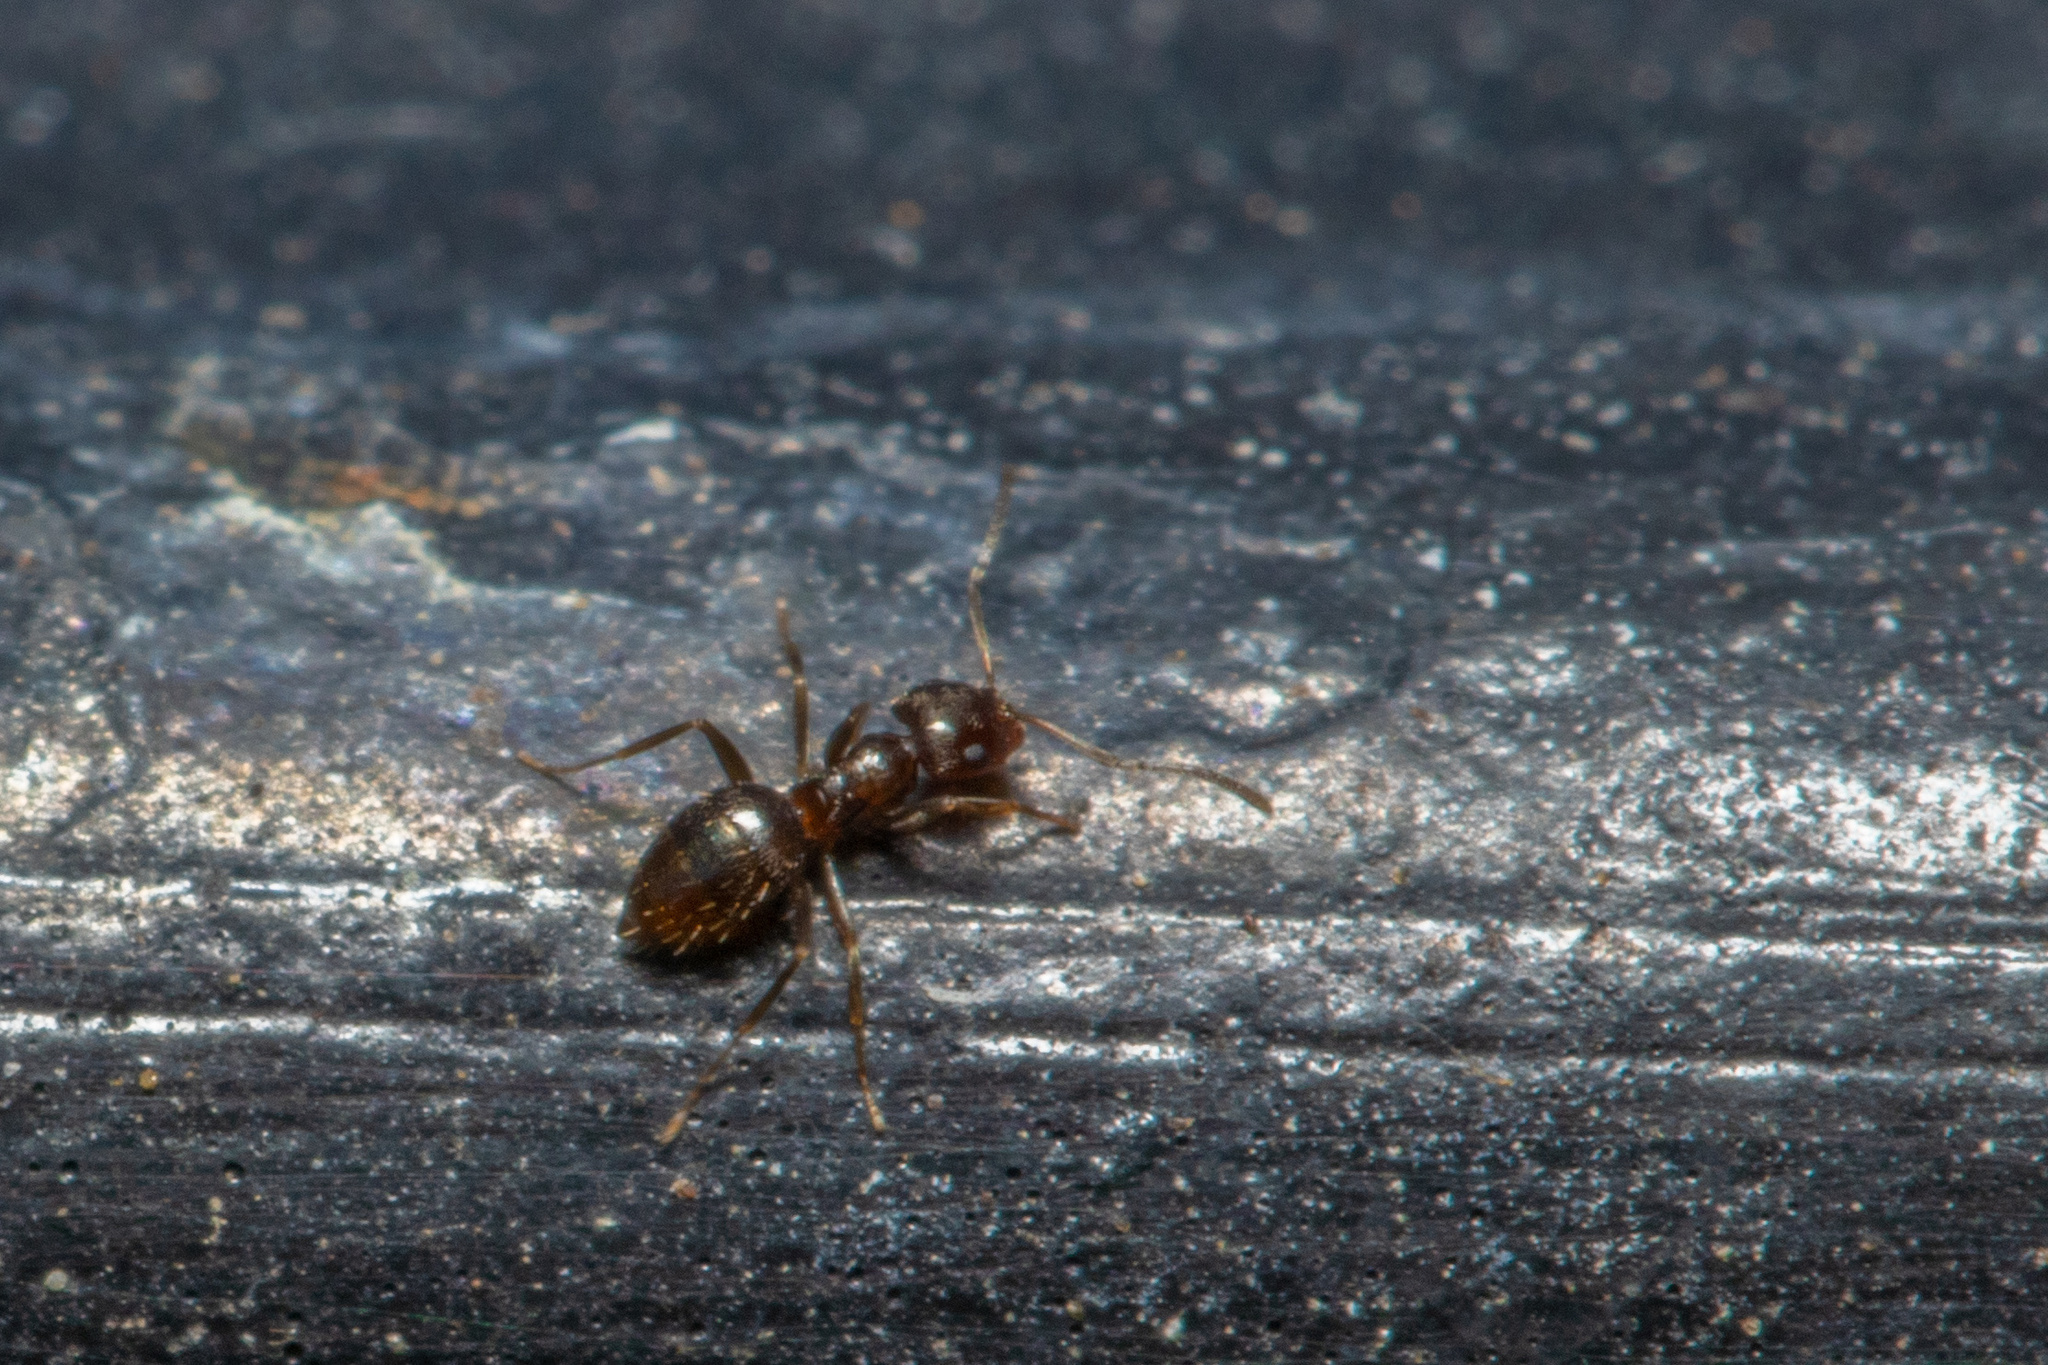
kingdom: Animalia
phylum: Arthropoda
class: Insecta
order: Hymenoptera
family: Formicidae
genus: Brachymyrmex
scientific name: Brachymyrmex patagonicus
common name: Dark rover ant
